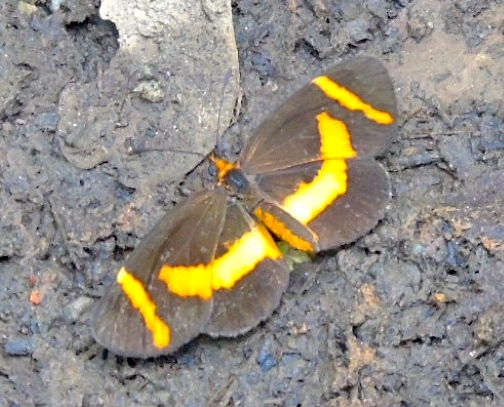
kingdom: Animalia
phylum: Arthropoda
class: Insecta
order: Lepidoptera
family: Nymphalidae
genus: Microtia
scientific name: Microtia elva
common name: Elf
